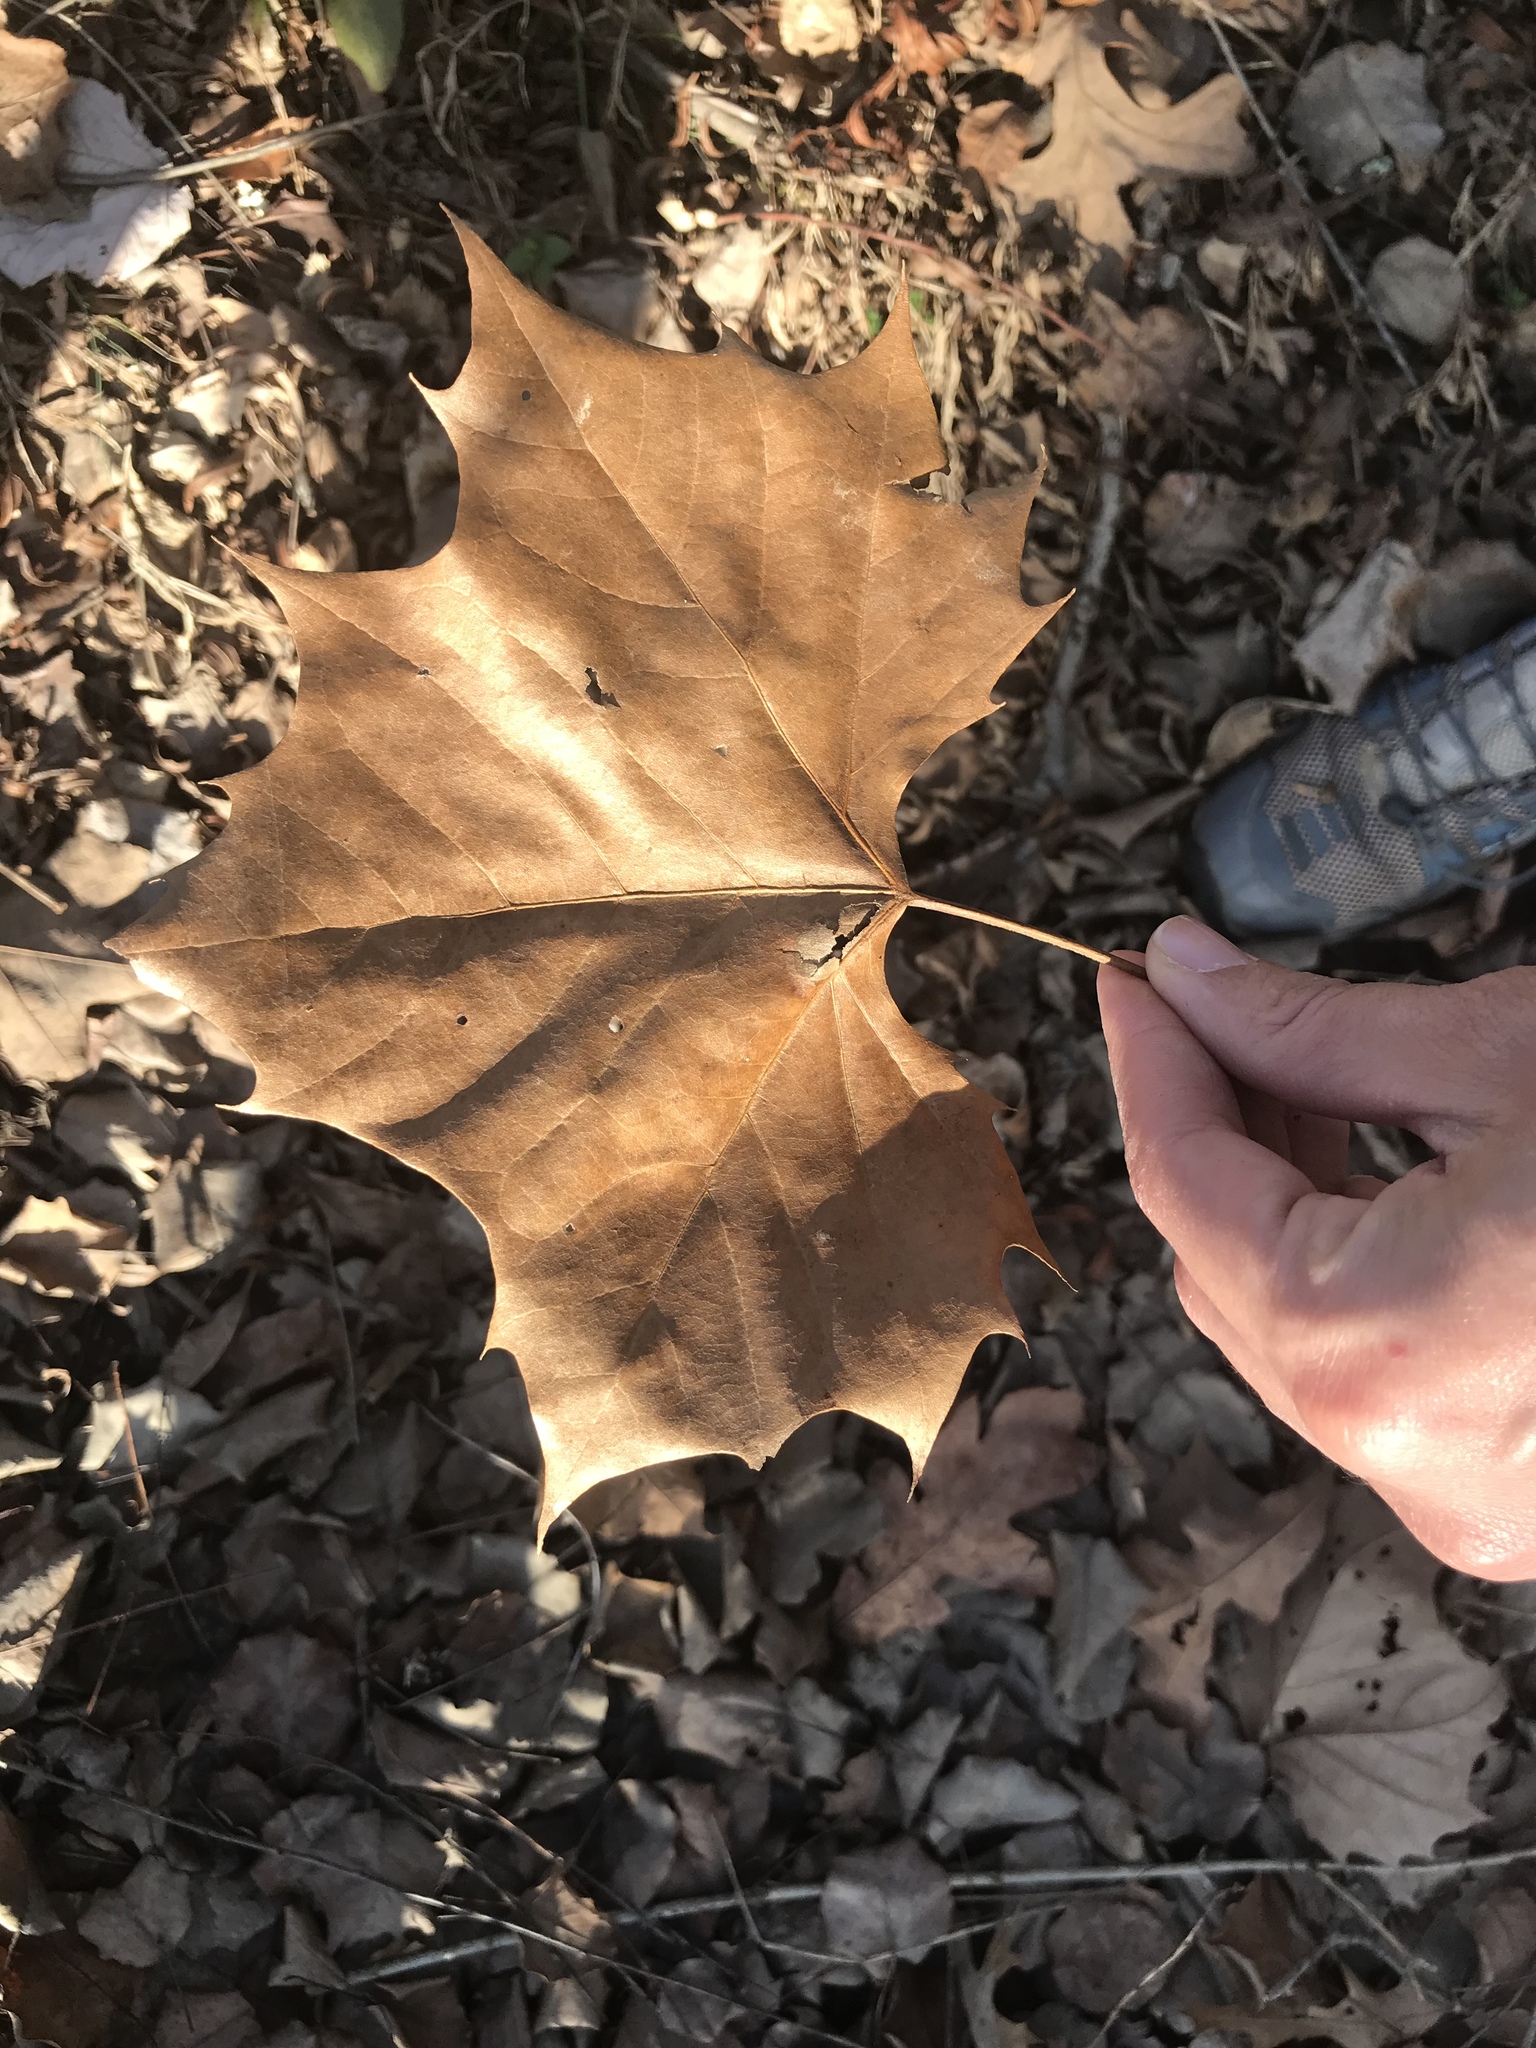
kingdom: Plantae
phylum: Tracheophyta
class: Magnoliopsida
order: Proteales
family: Platanaceae
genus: Platanus
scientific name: Platanus occidentalis
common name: American sycamore
